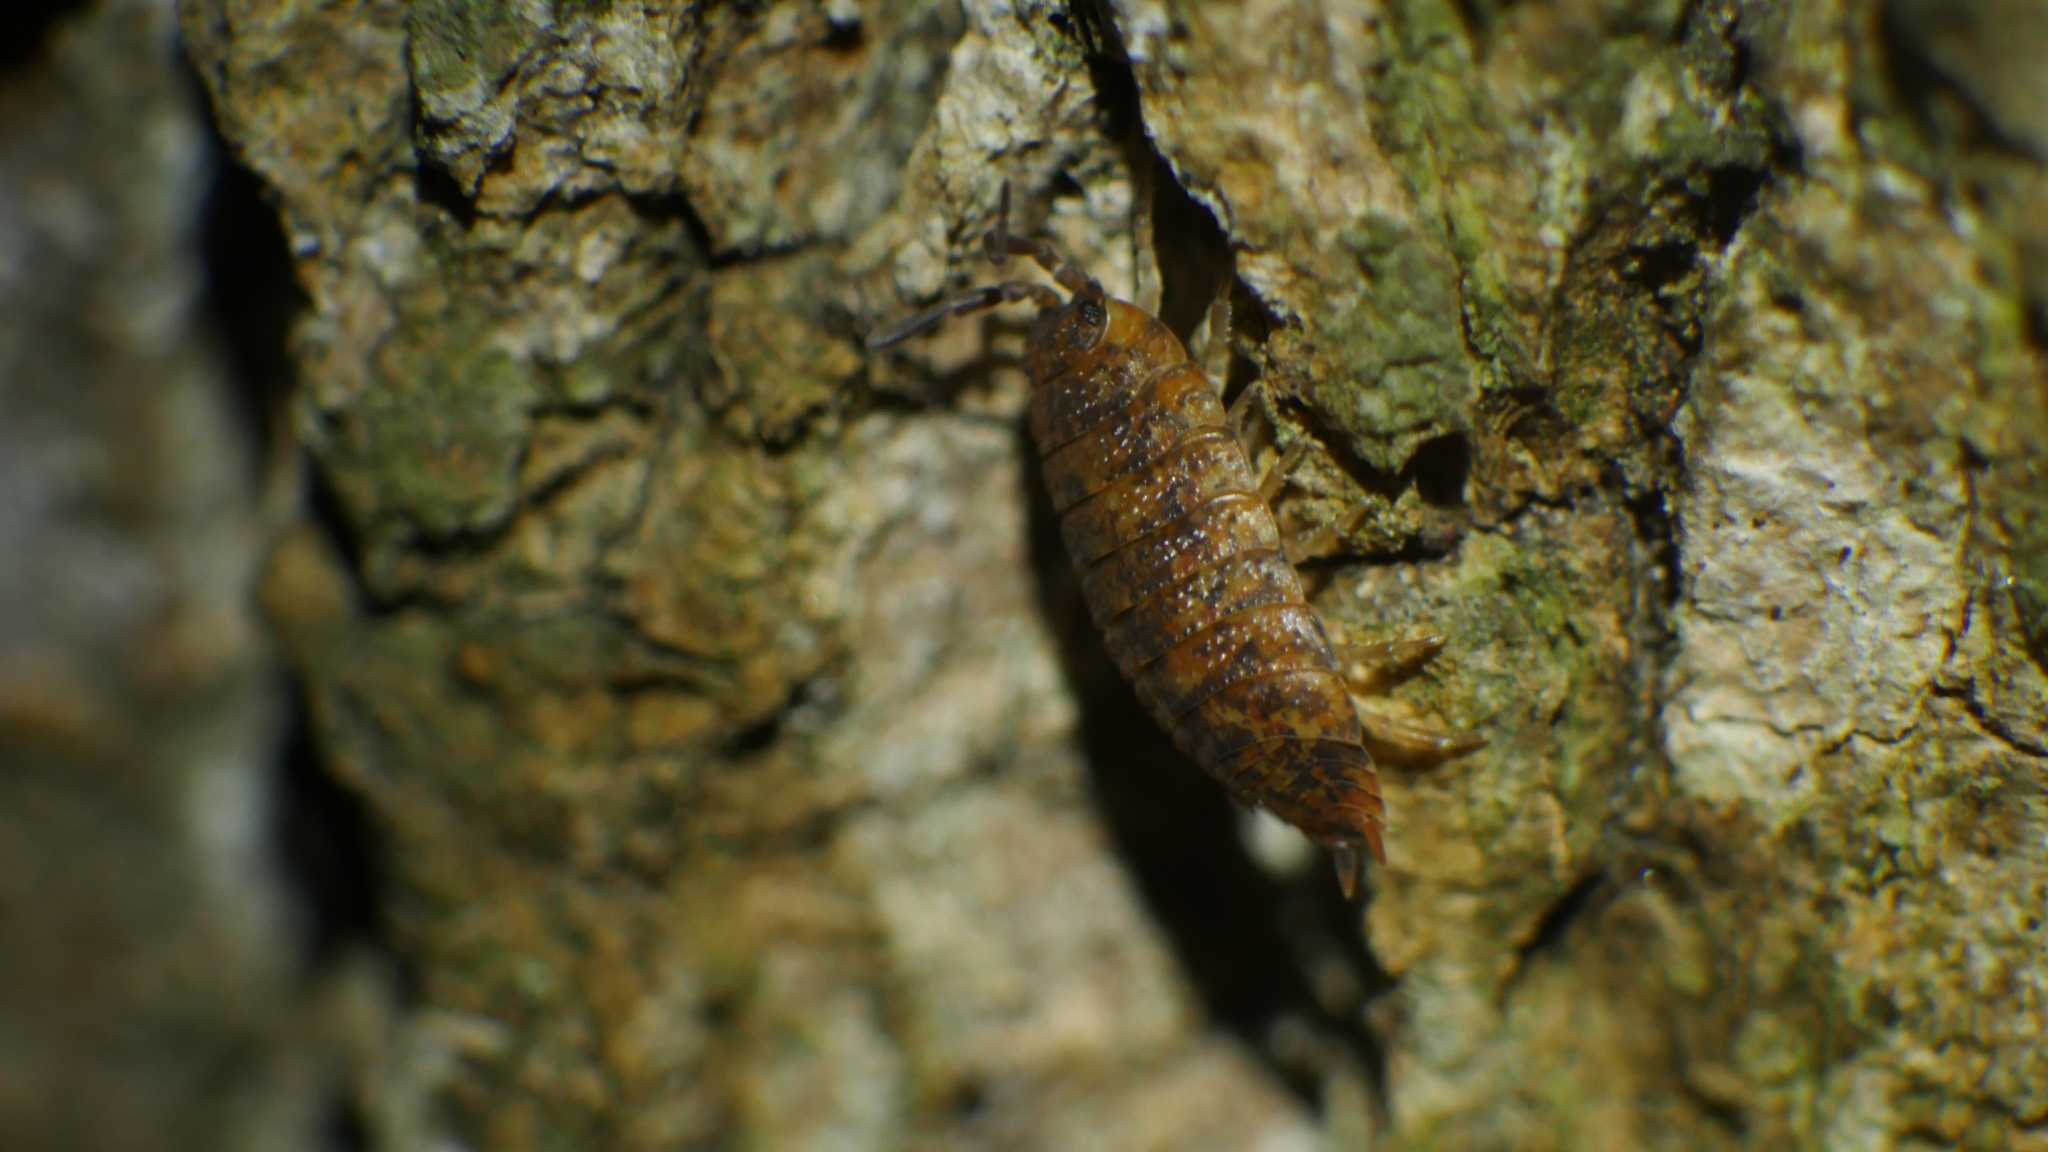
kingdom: Animalia
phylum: Arthropoda
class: Malacostraca
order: Isopoda
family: Porcellionidae
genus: Porcellio
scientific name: Porcellio scaber
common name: Common rough woodlouse
